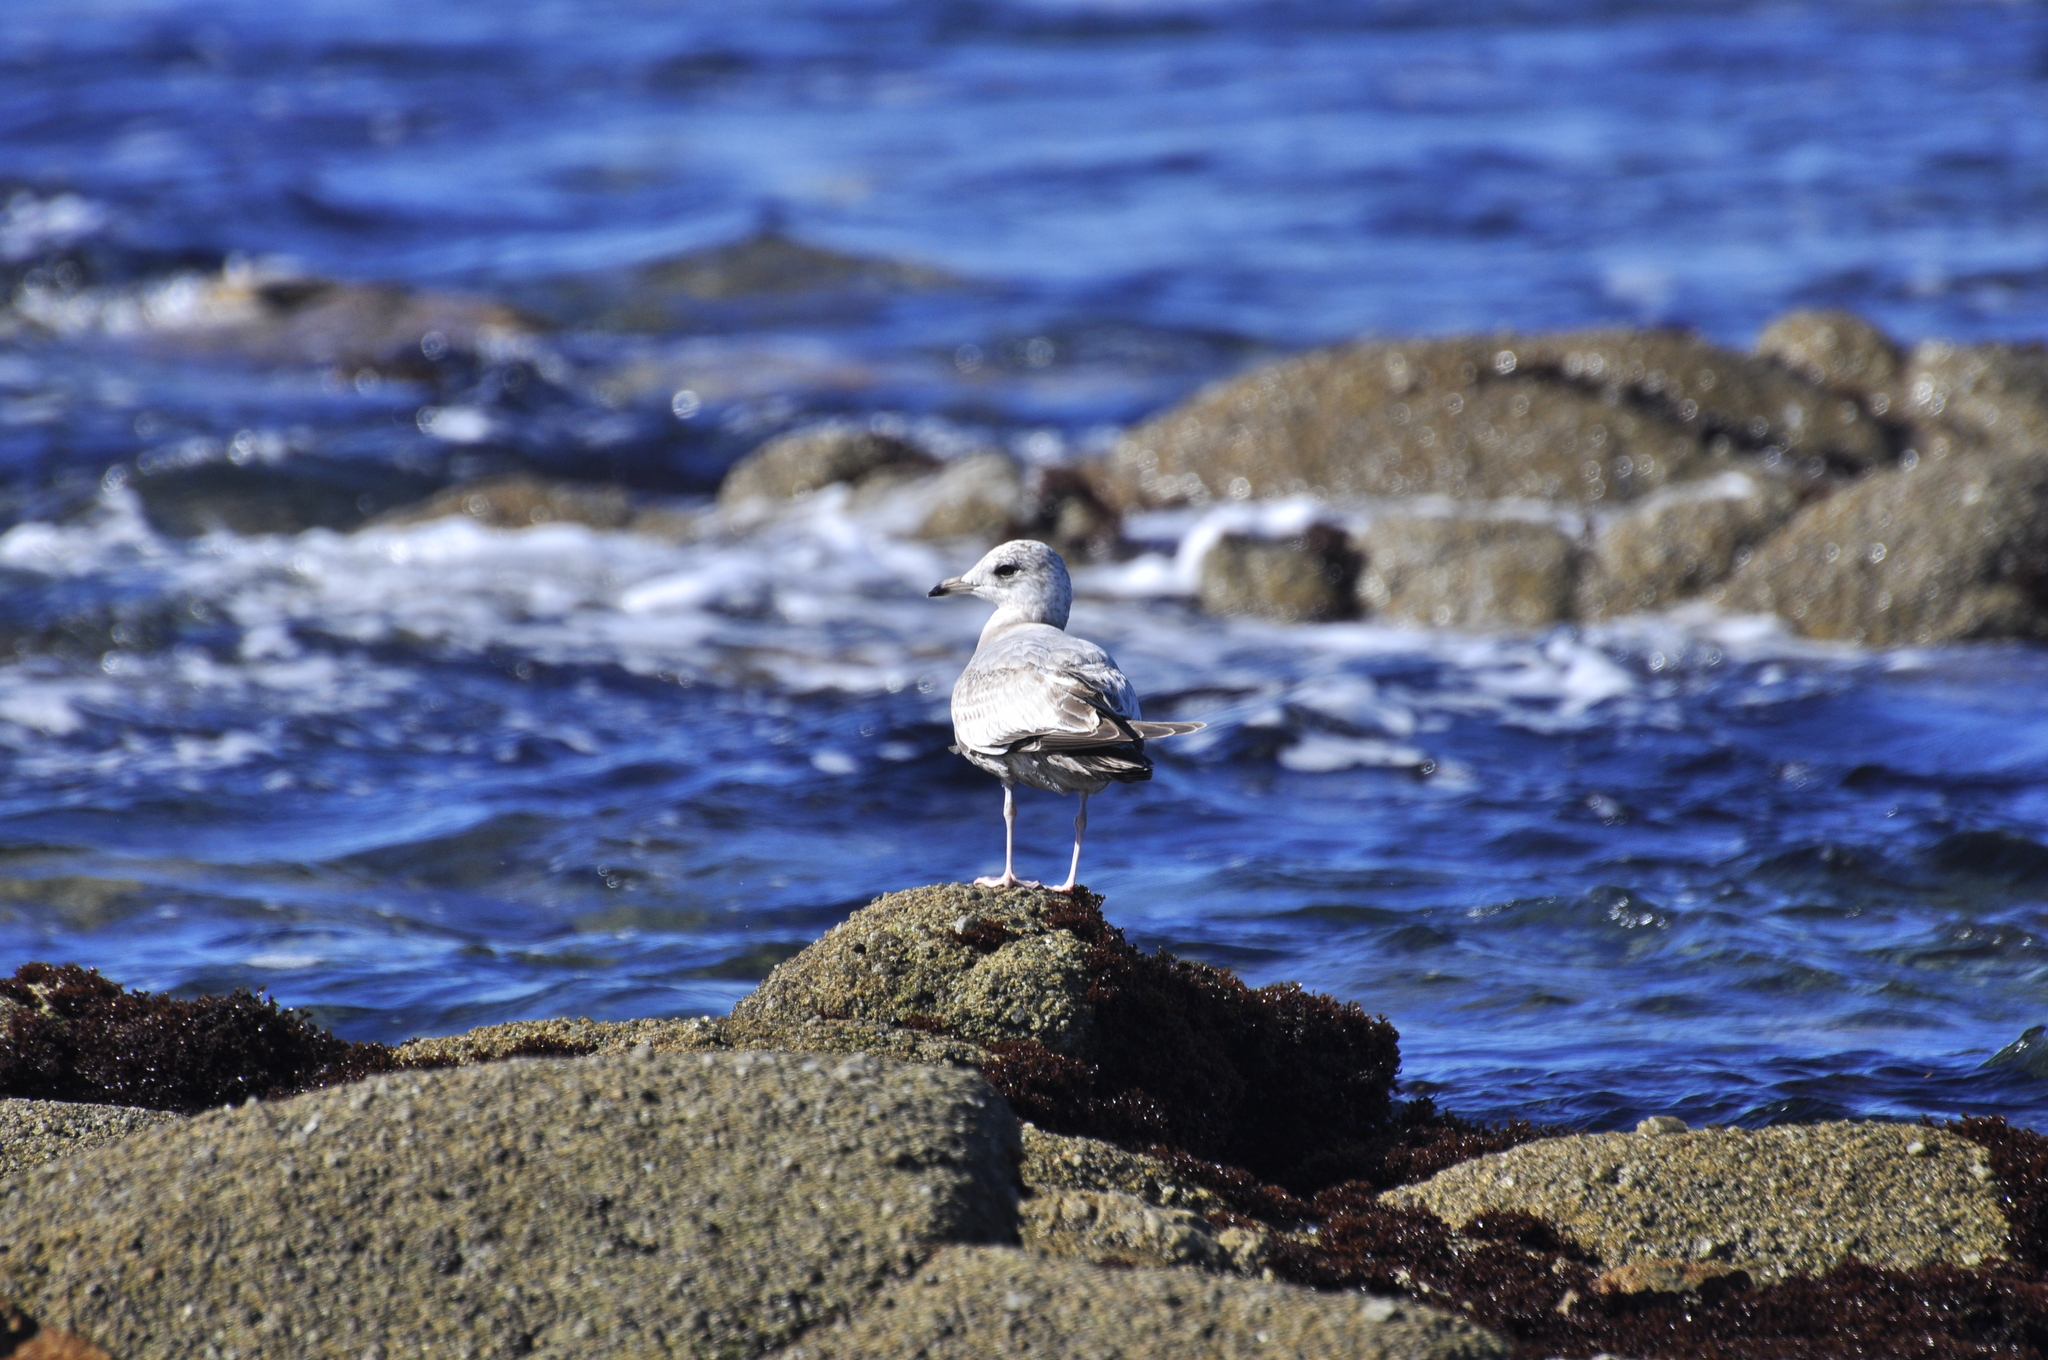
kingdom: Animalia
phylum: Chordata
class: Aves
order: Charadriiformes
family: Laridae
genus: Larus
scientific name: Larus brachyrhynchus
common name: Short-billed gull
